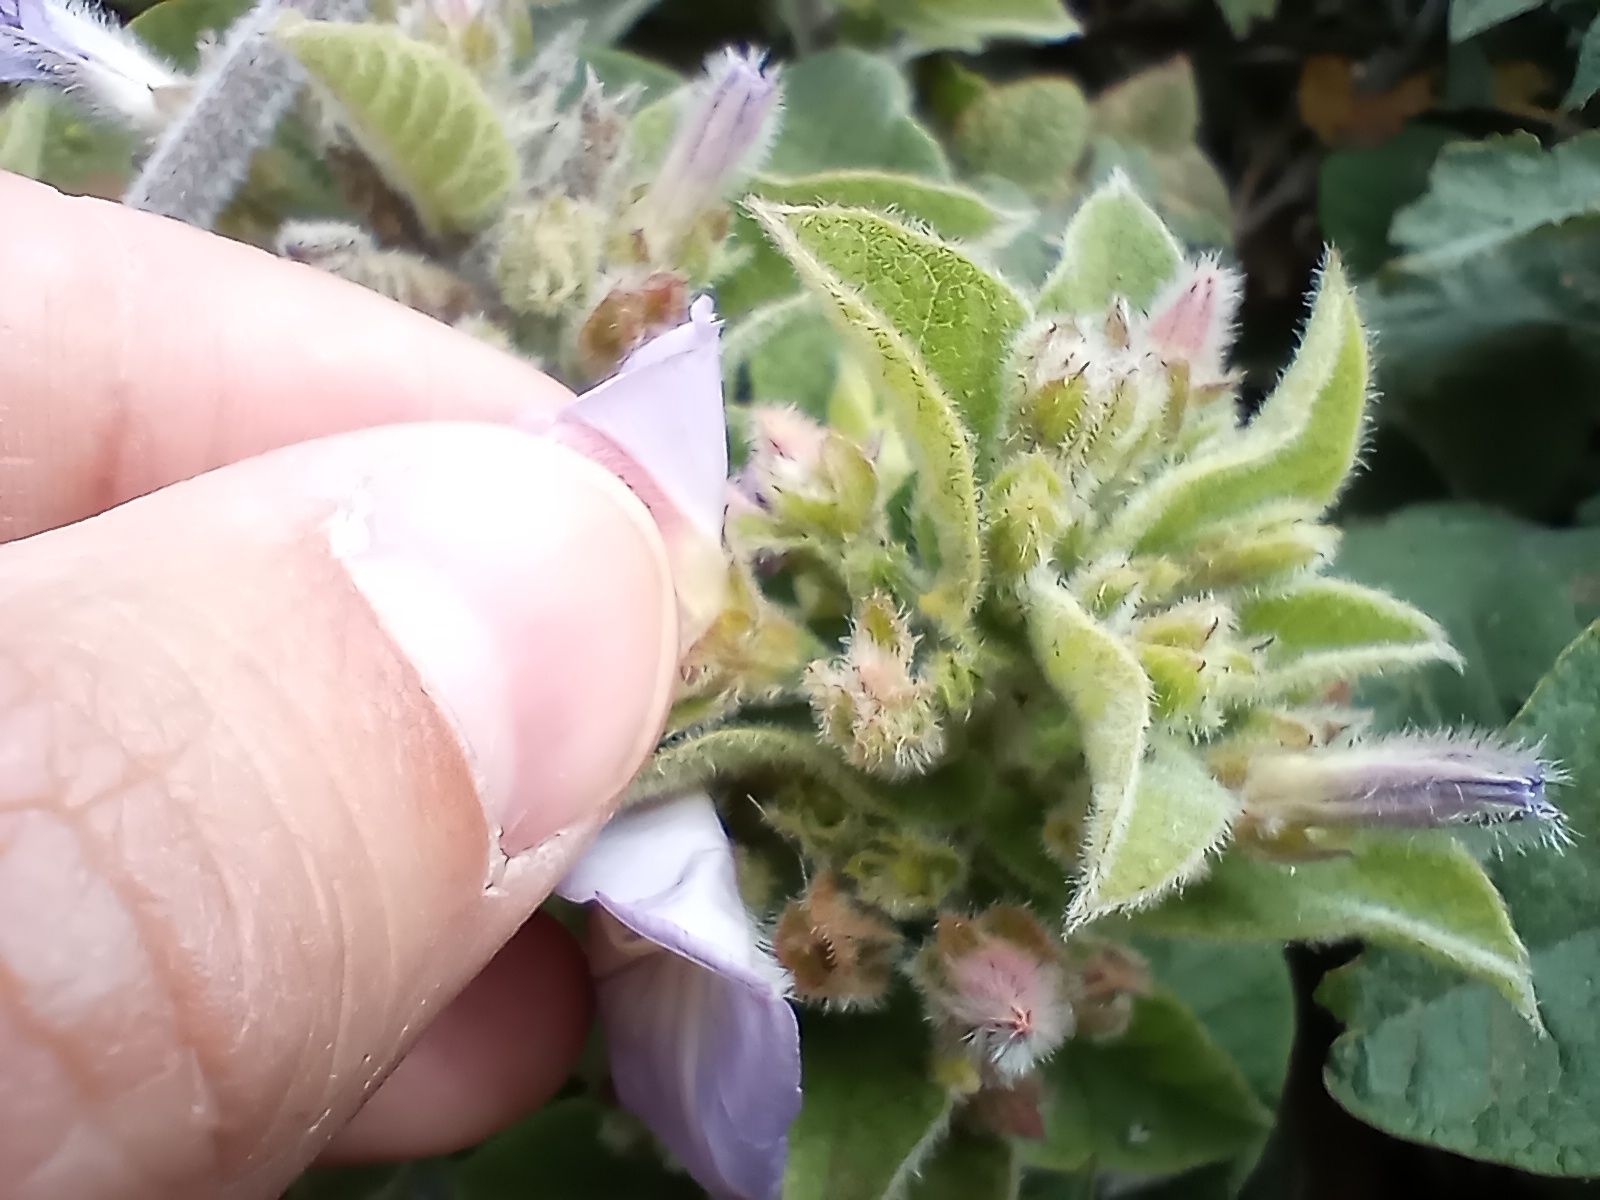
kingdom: Plantae
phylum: Tracheophyta
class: Magnoliopsida
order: Solanales
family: Convolvulaceae
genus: Convolvulus
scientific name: Convolvulus canariensis
